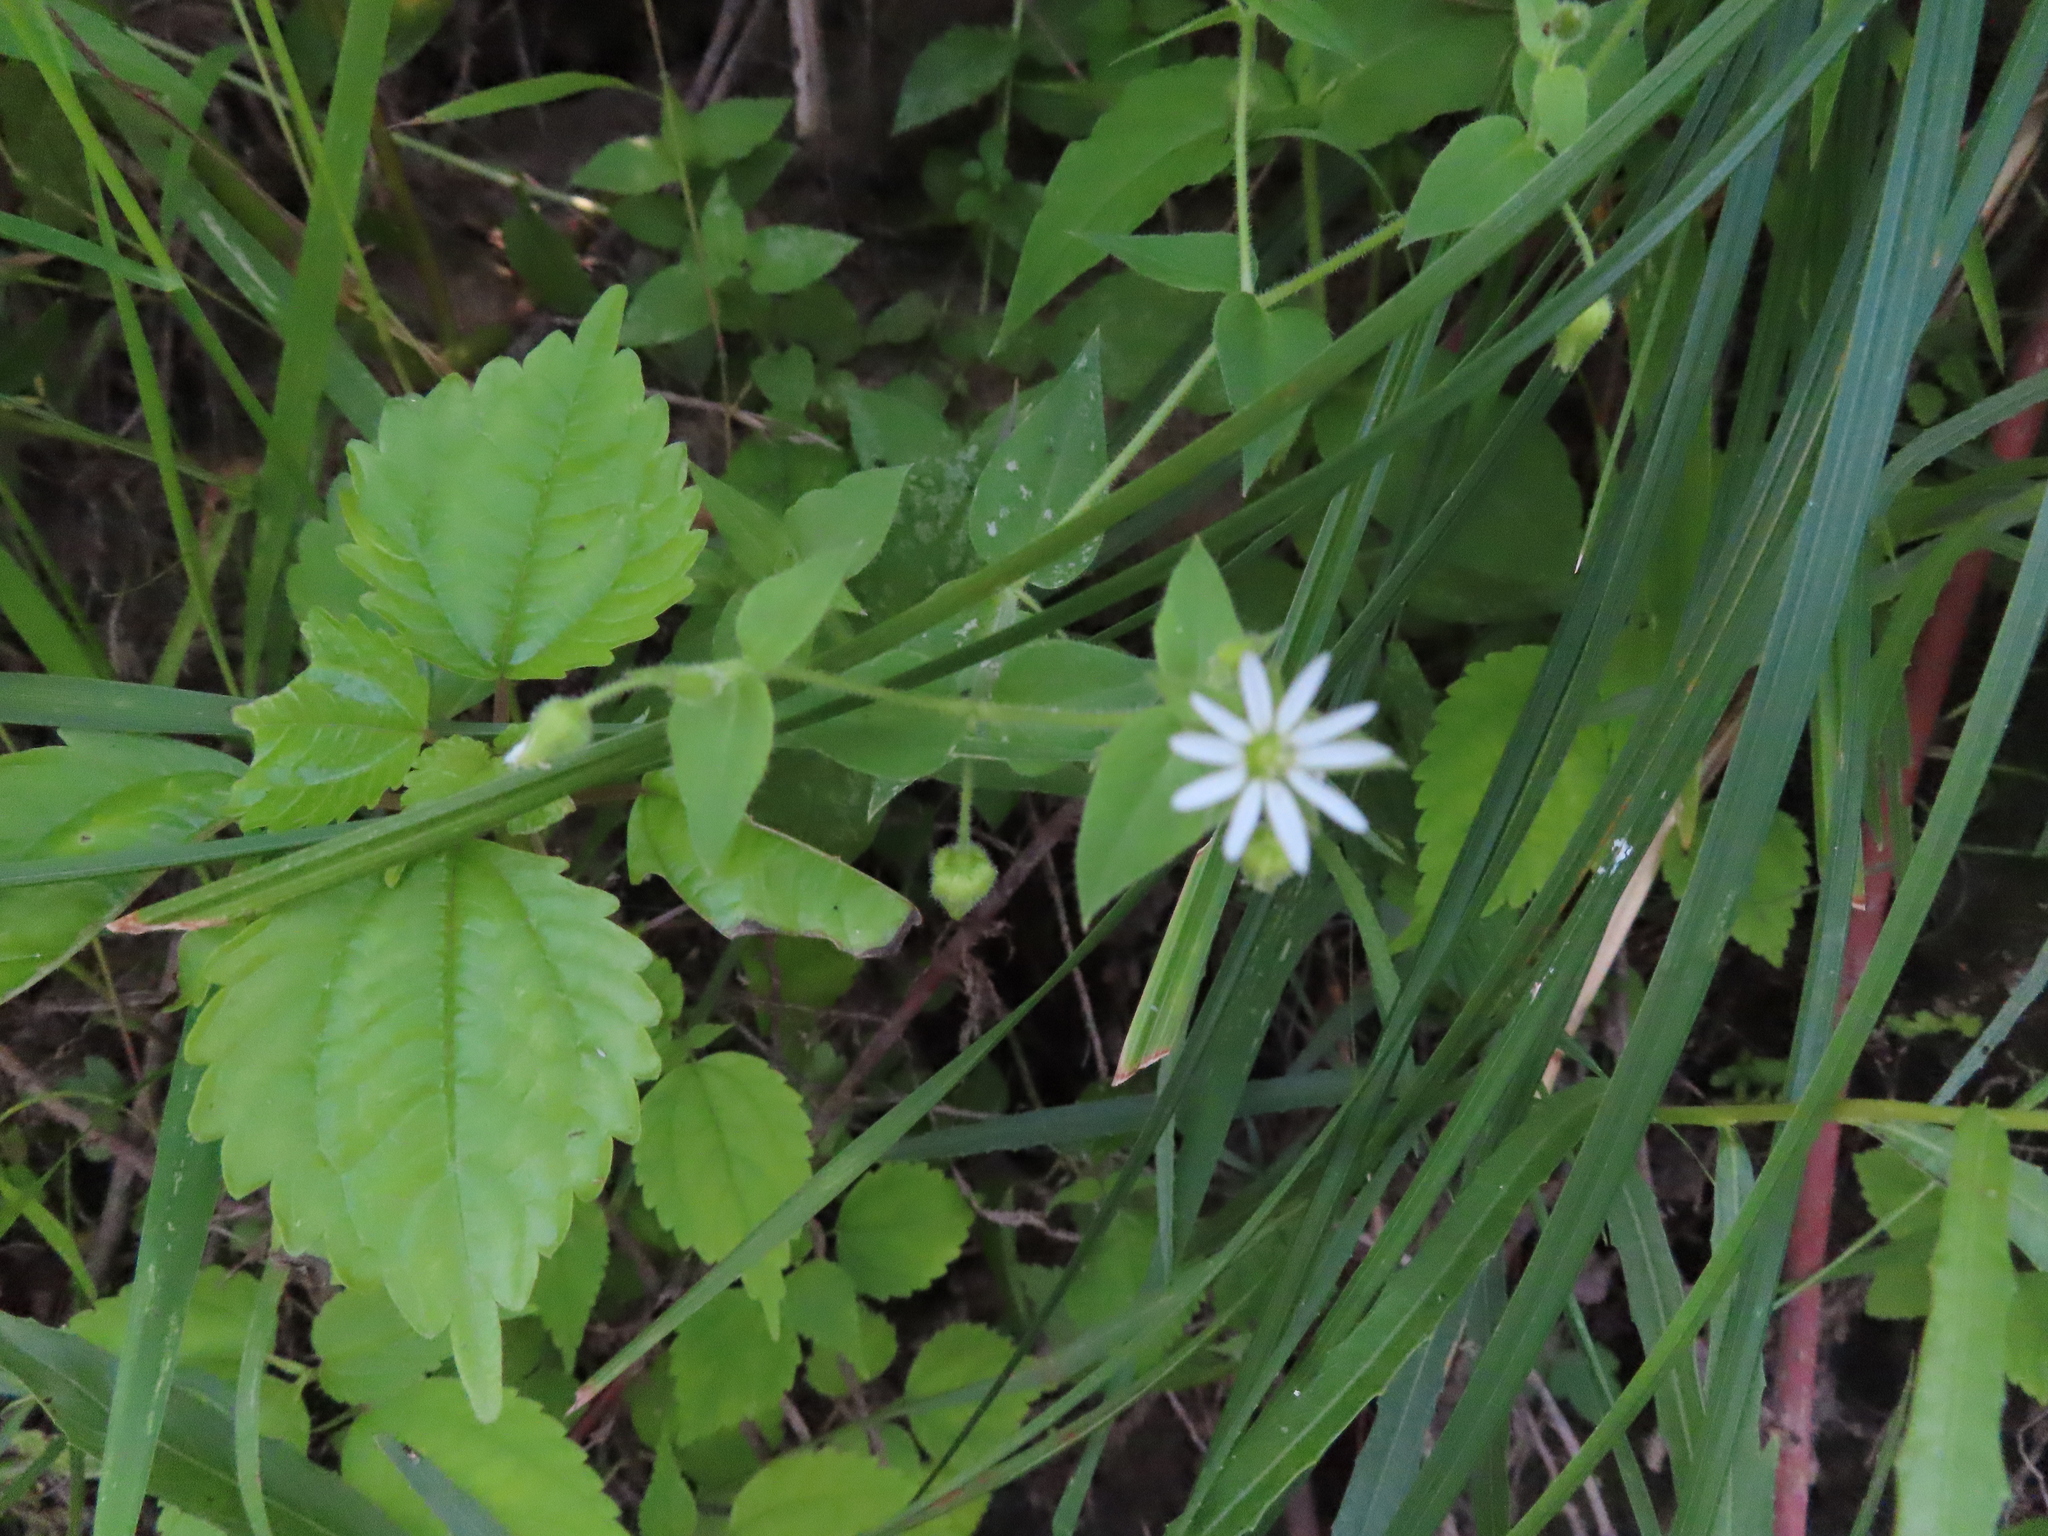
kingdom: Plantae
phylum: Tracheophyta
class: Magnoliopsida
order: Caryophyllales
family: Caryophyllaceae
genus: Stellaria
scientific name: Stellaria aquatica
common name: Water chickweed
